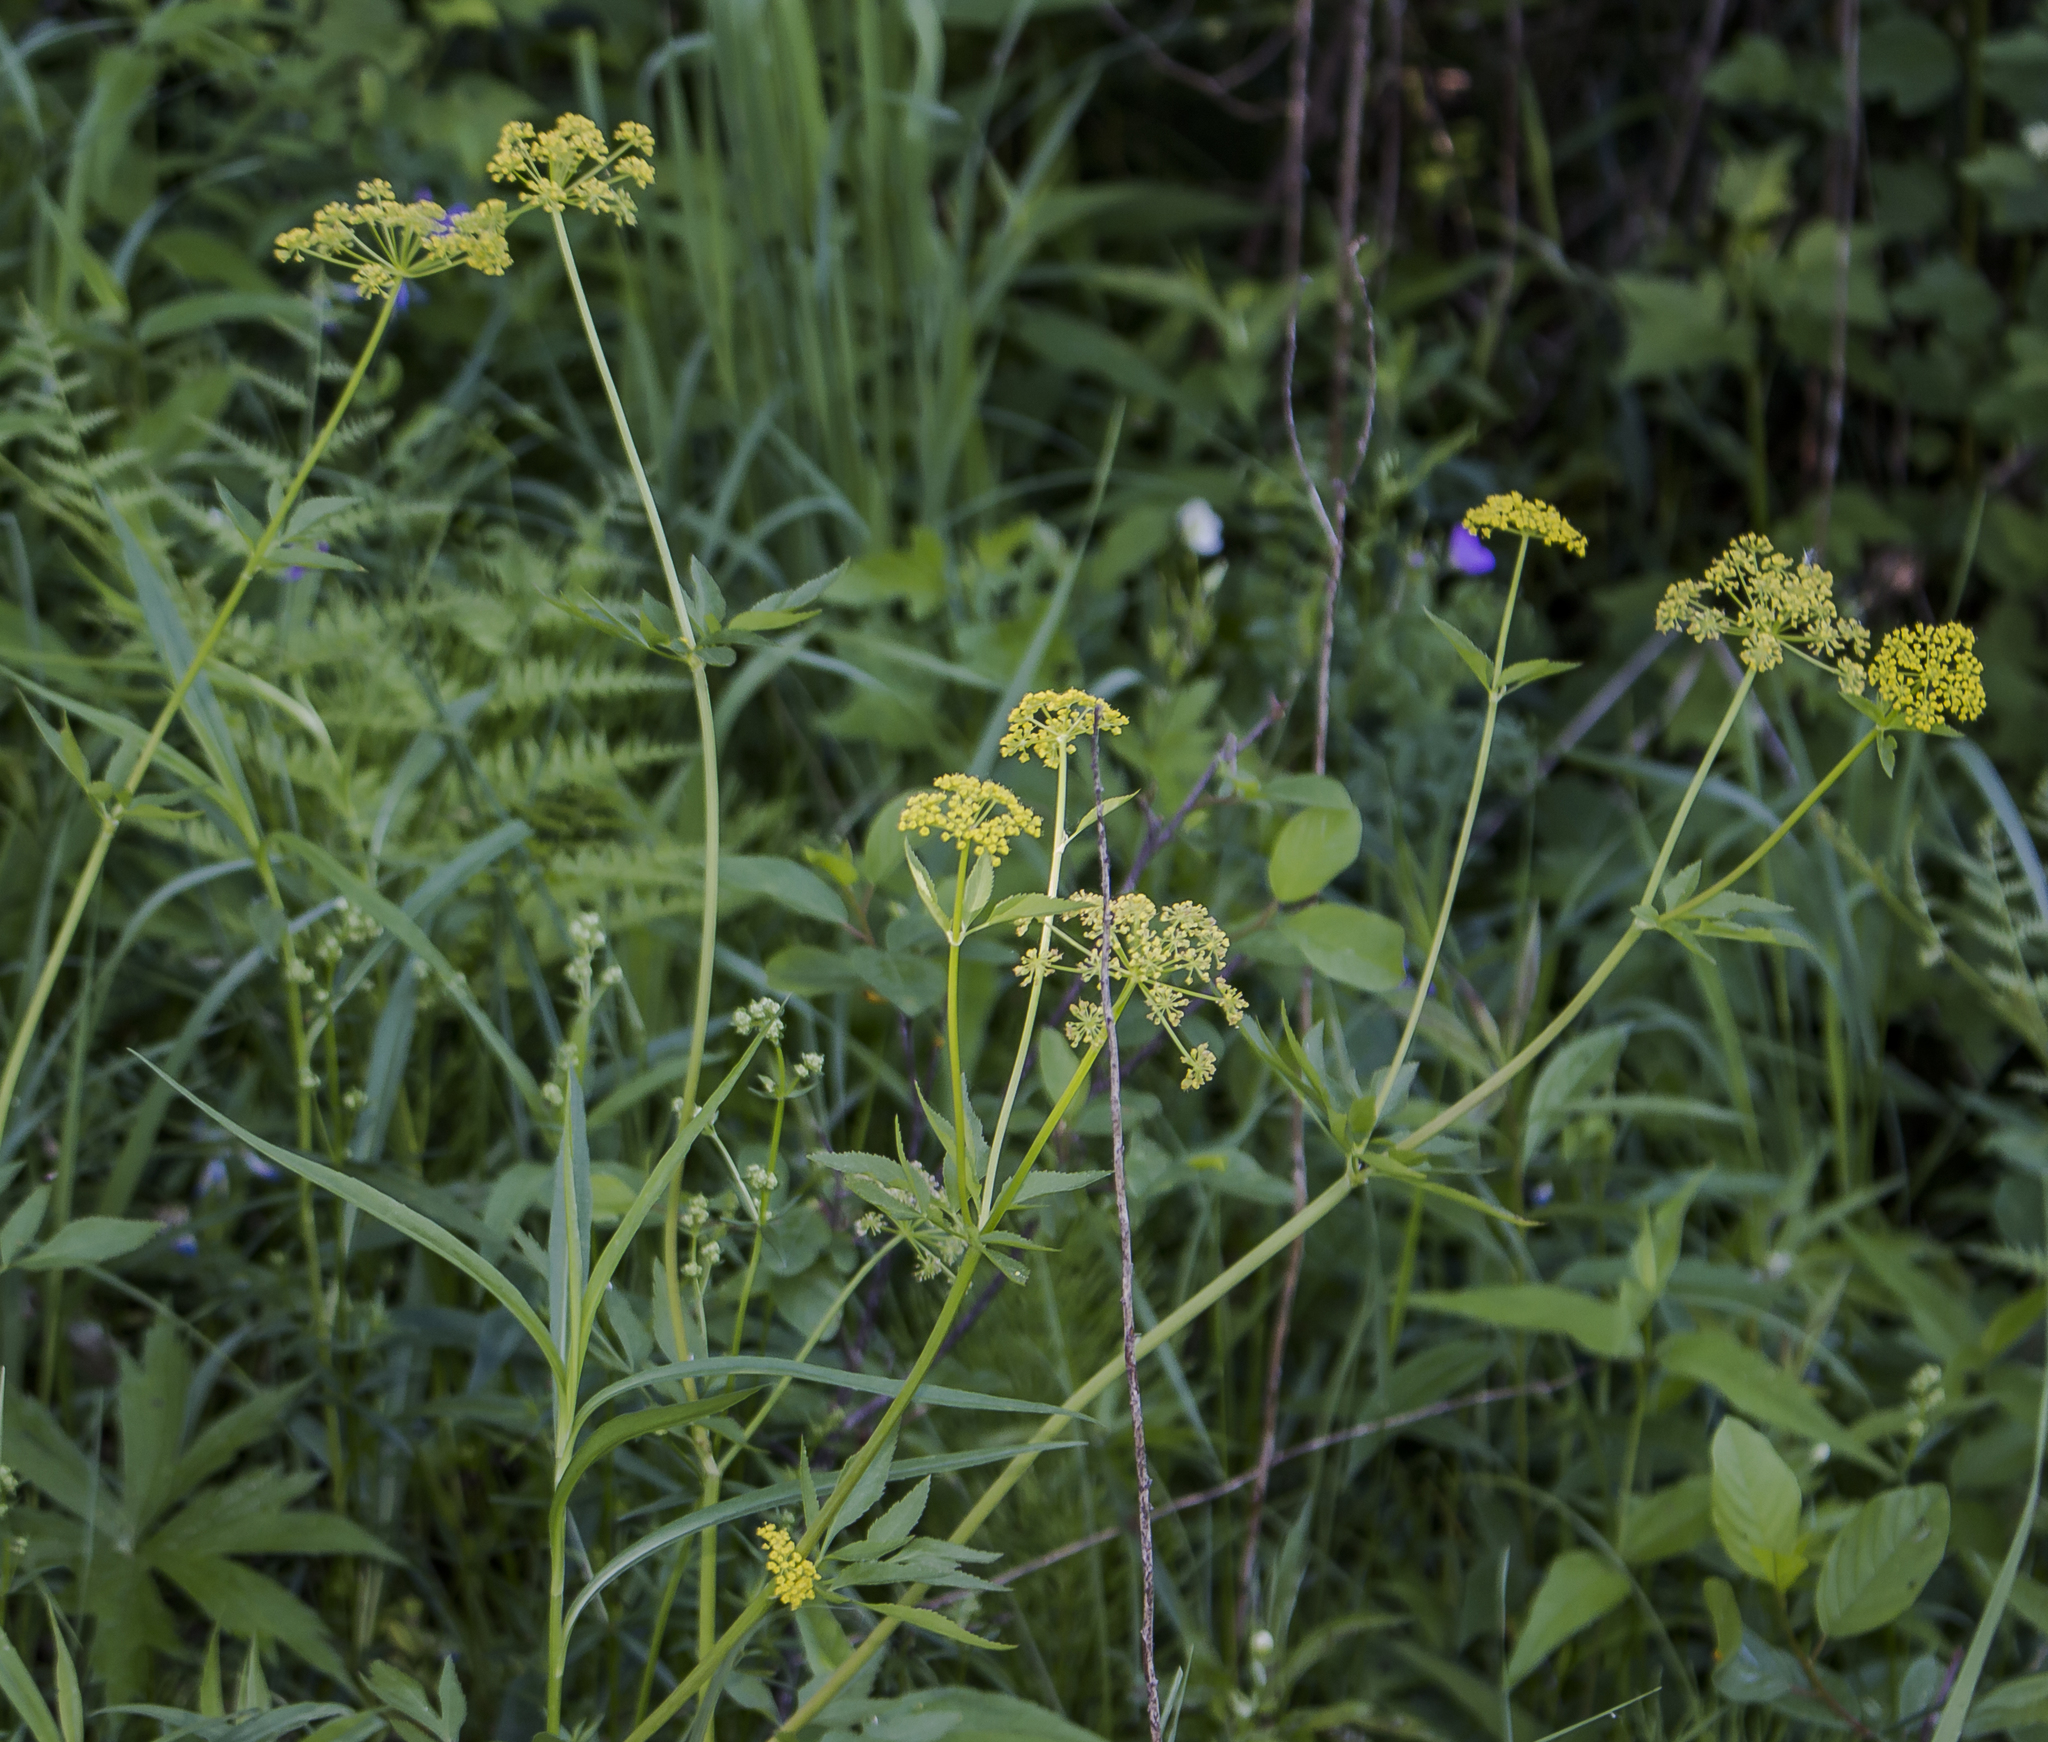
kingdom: Plantae
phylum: Tracheophyta
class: Magnoliopsida
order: Apiales
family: Apiaceae
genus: Zizia
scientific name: Zizia aurea
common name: Golden alexanders
